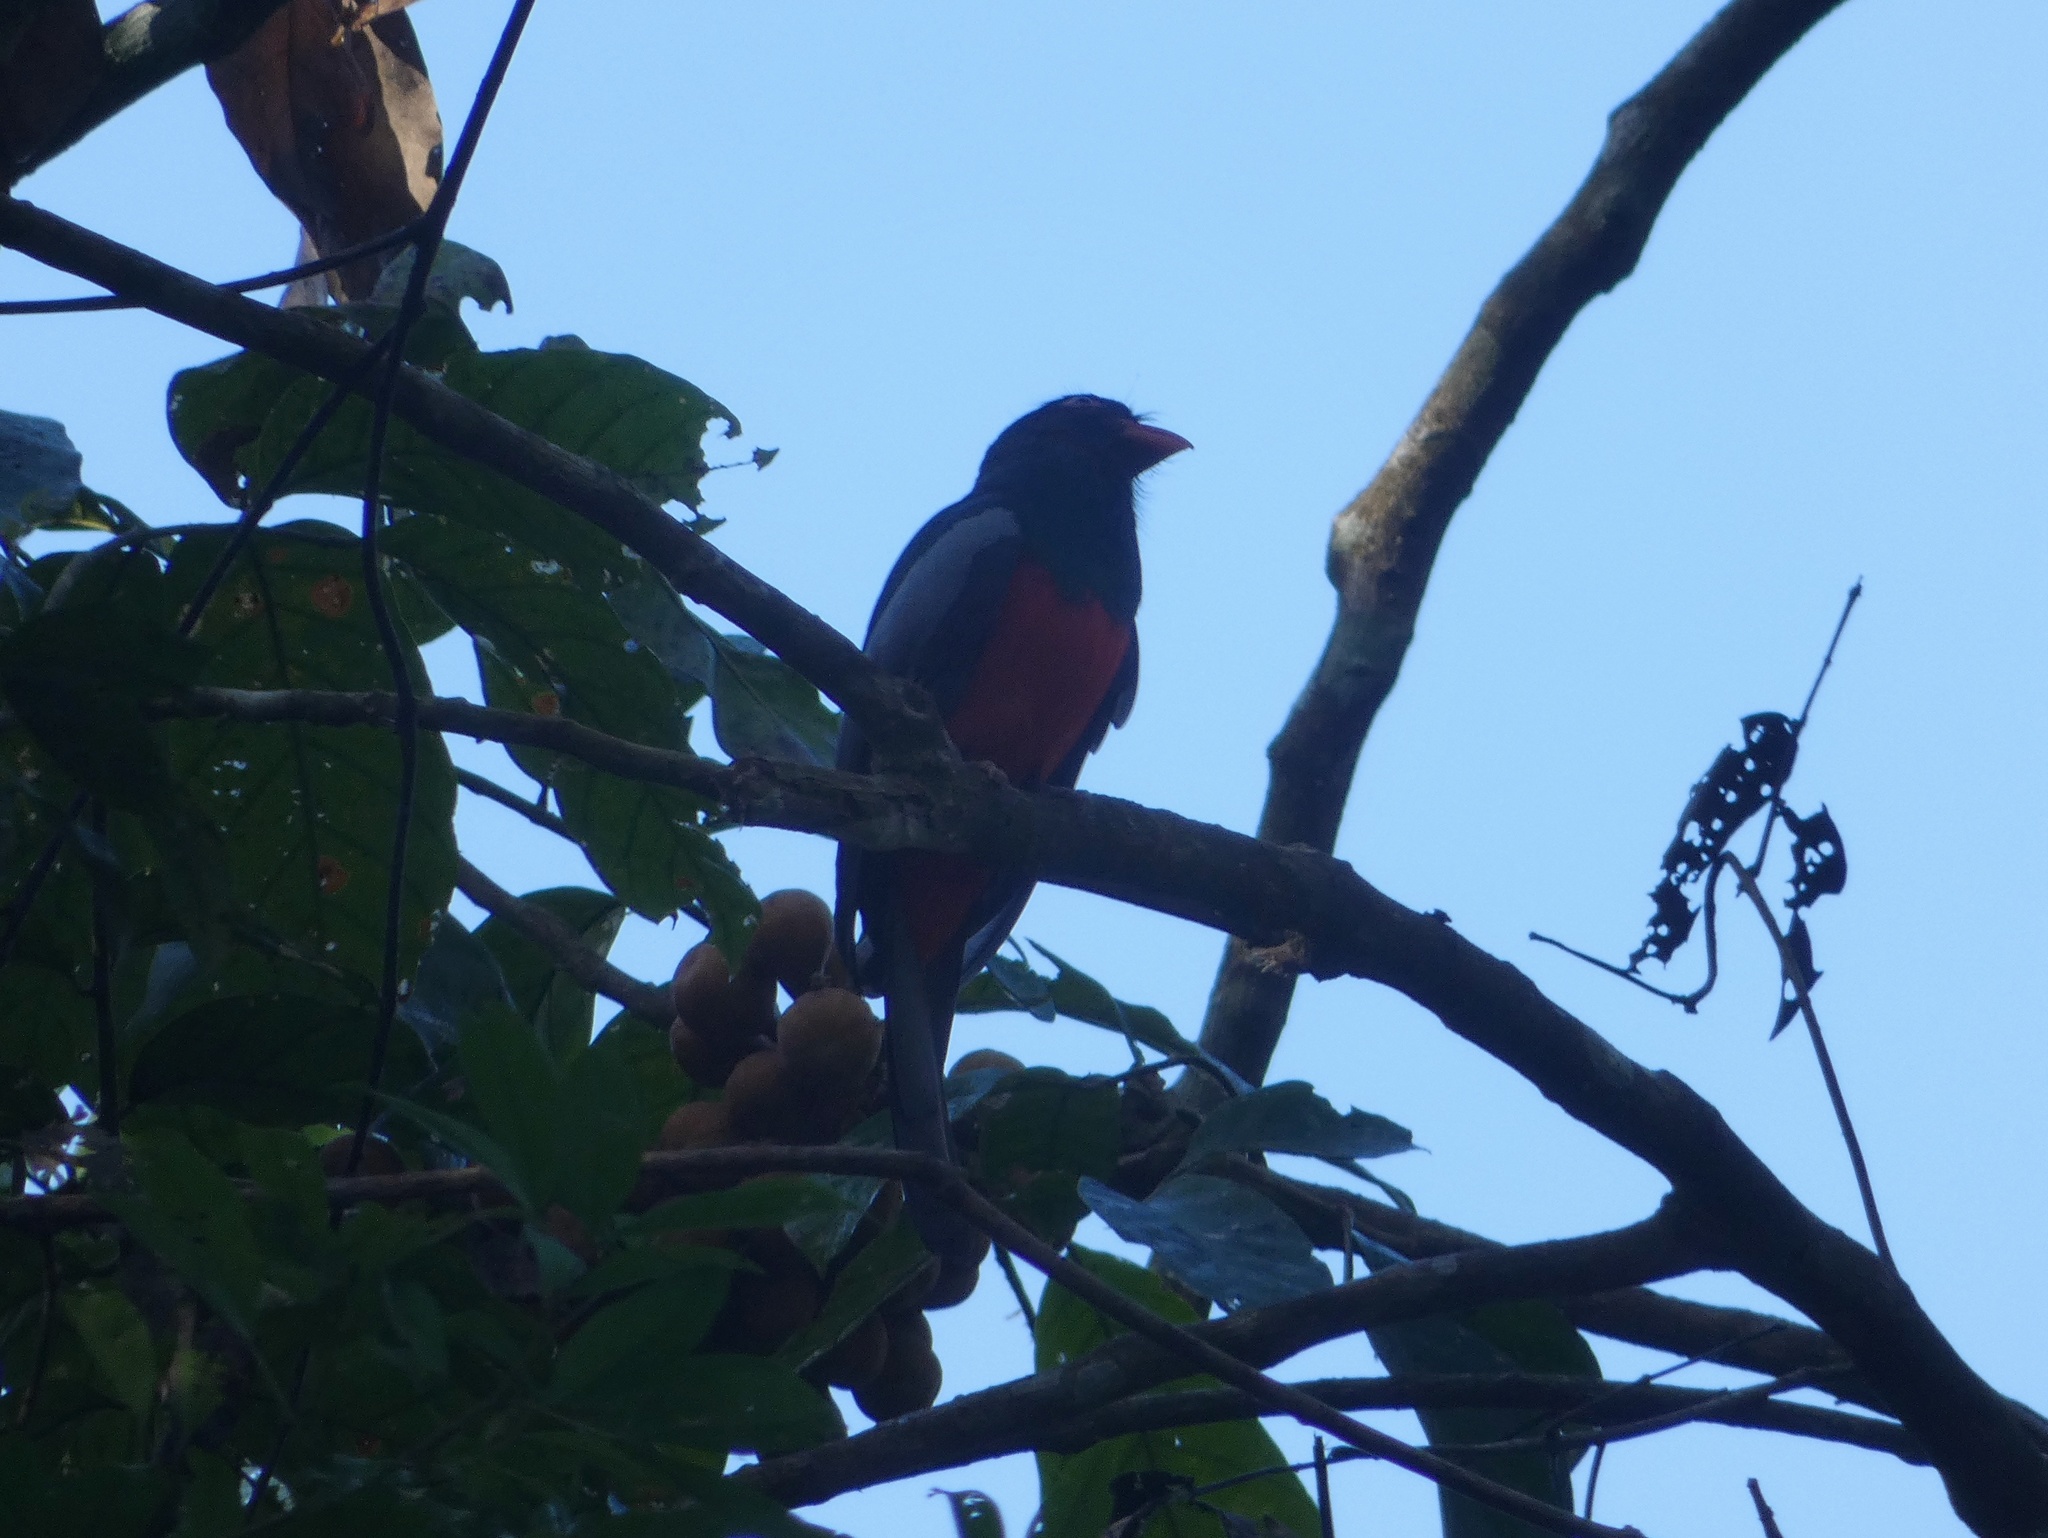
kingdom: Animalia
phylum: Chordata
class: Aves
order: Trogoniformes
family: Trogonidae
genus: Trogon
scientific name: Trogon massena
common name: Slaty-tailed trogon
